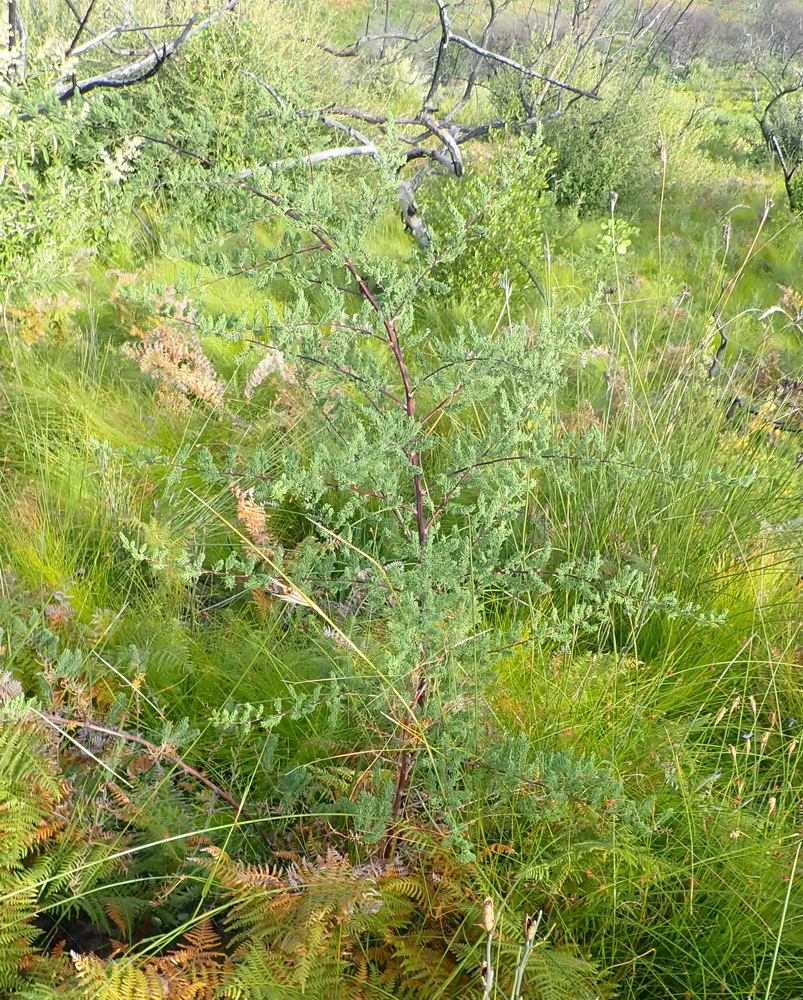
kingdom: Plantae
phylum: Tracheophyta
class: Liliopsida
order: Asparagales
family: Asparagaceae
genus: Asparagus
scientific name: Asparagus rubicundus
